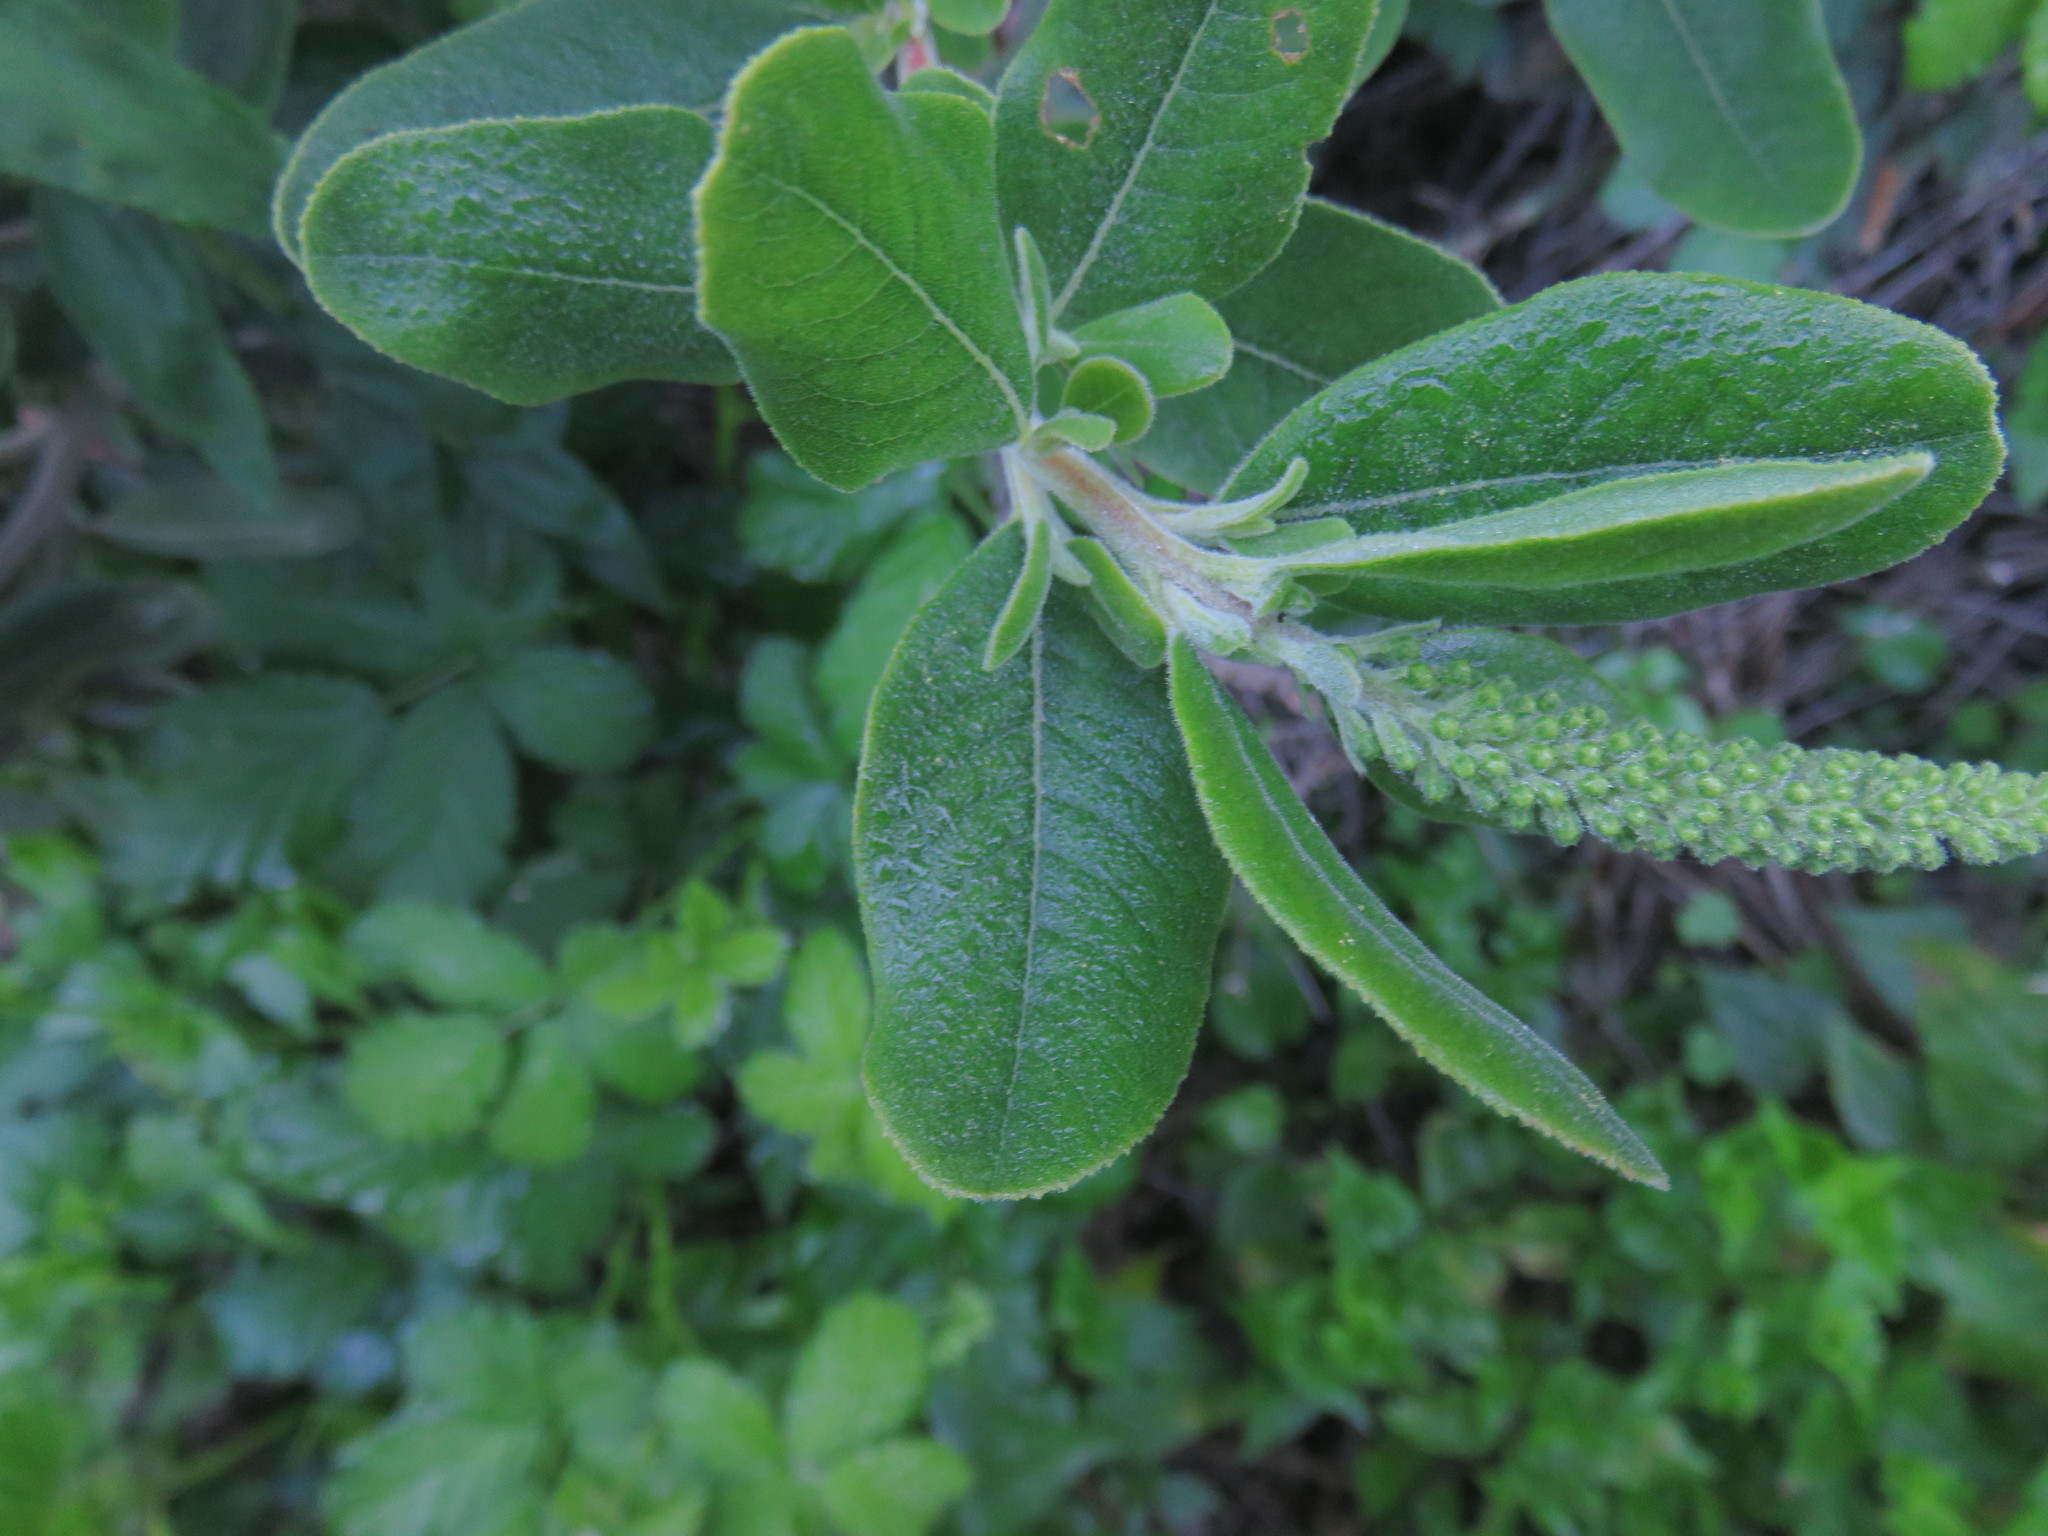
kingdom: Plantae
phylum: Tracheophyta
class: Magnoliopsida
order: Escalloniales
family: Escalloniaceae
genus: Escallonia
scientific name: Escallonia pulverulenta
